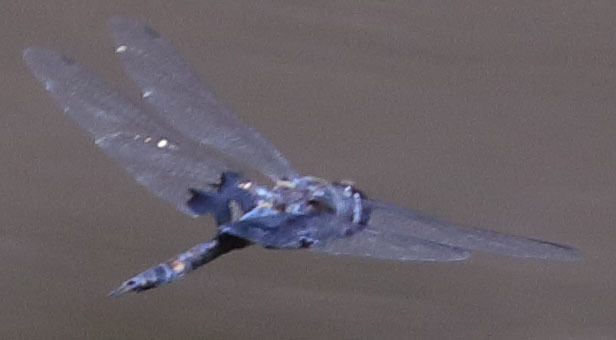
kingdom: Animalia
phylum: Arthropoda
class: Insecta
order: Odonata
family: Libellulidae
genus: Tramea
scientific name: Tramea lacerata
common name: Black saddlebags
